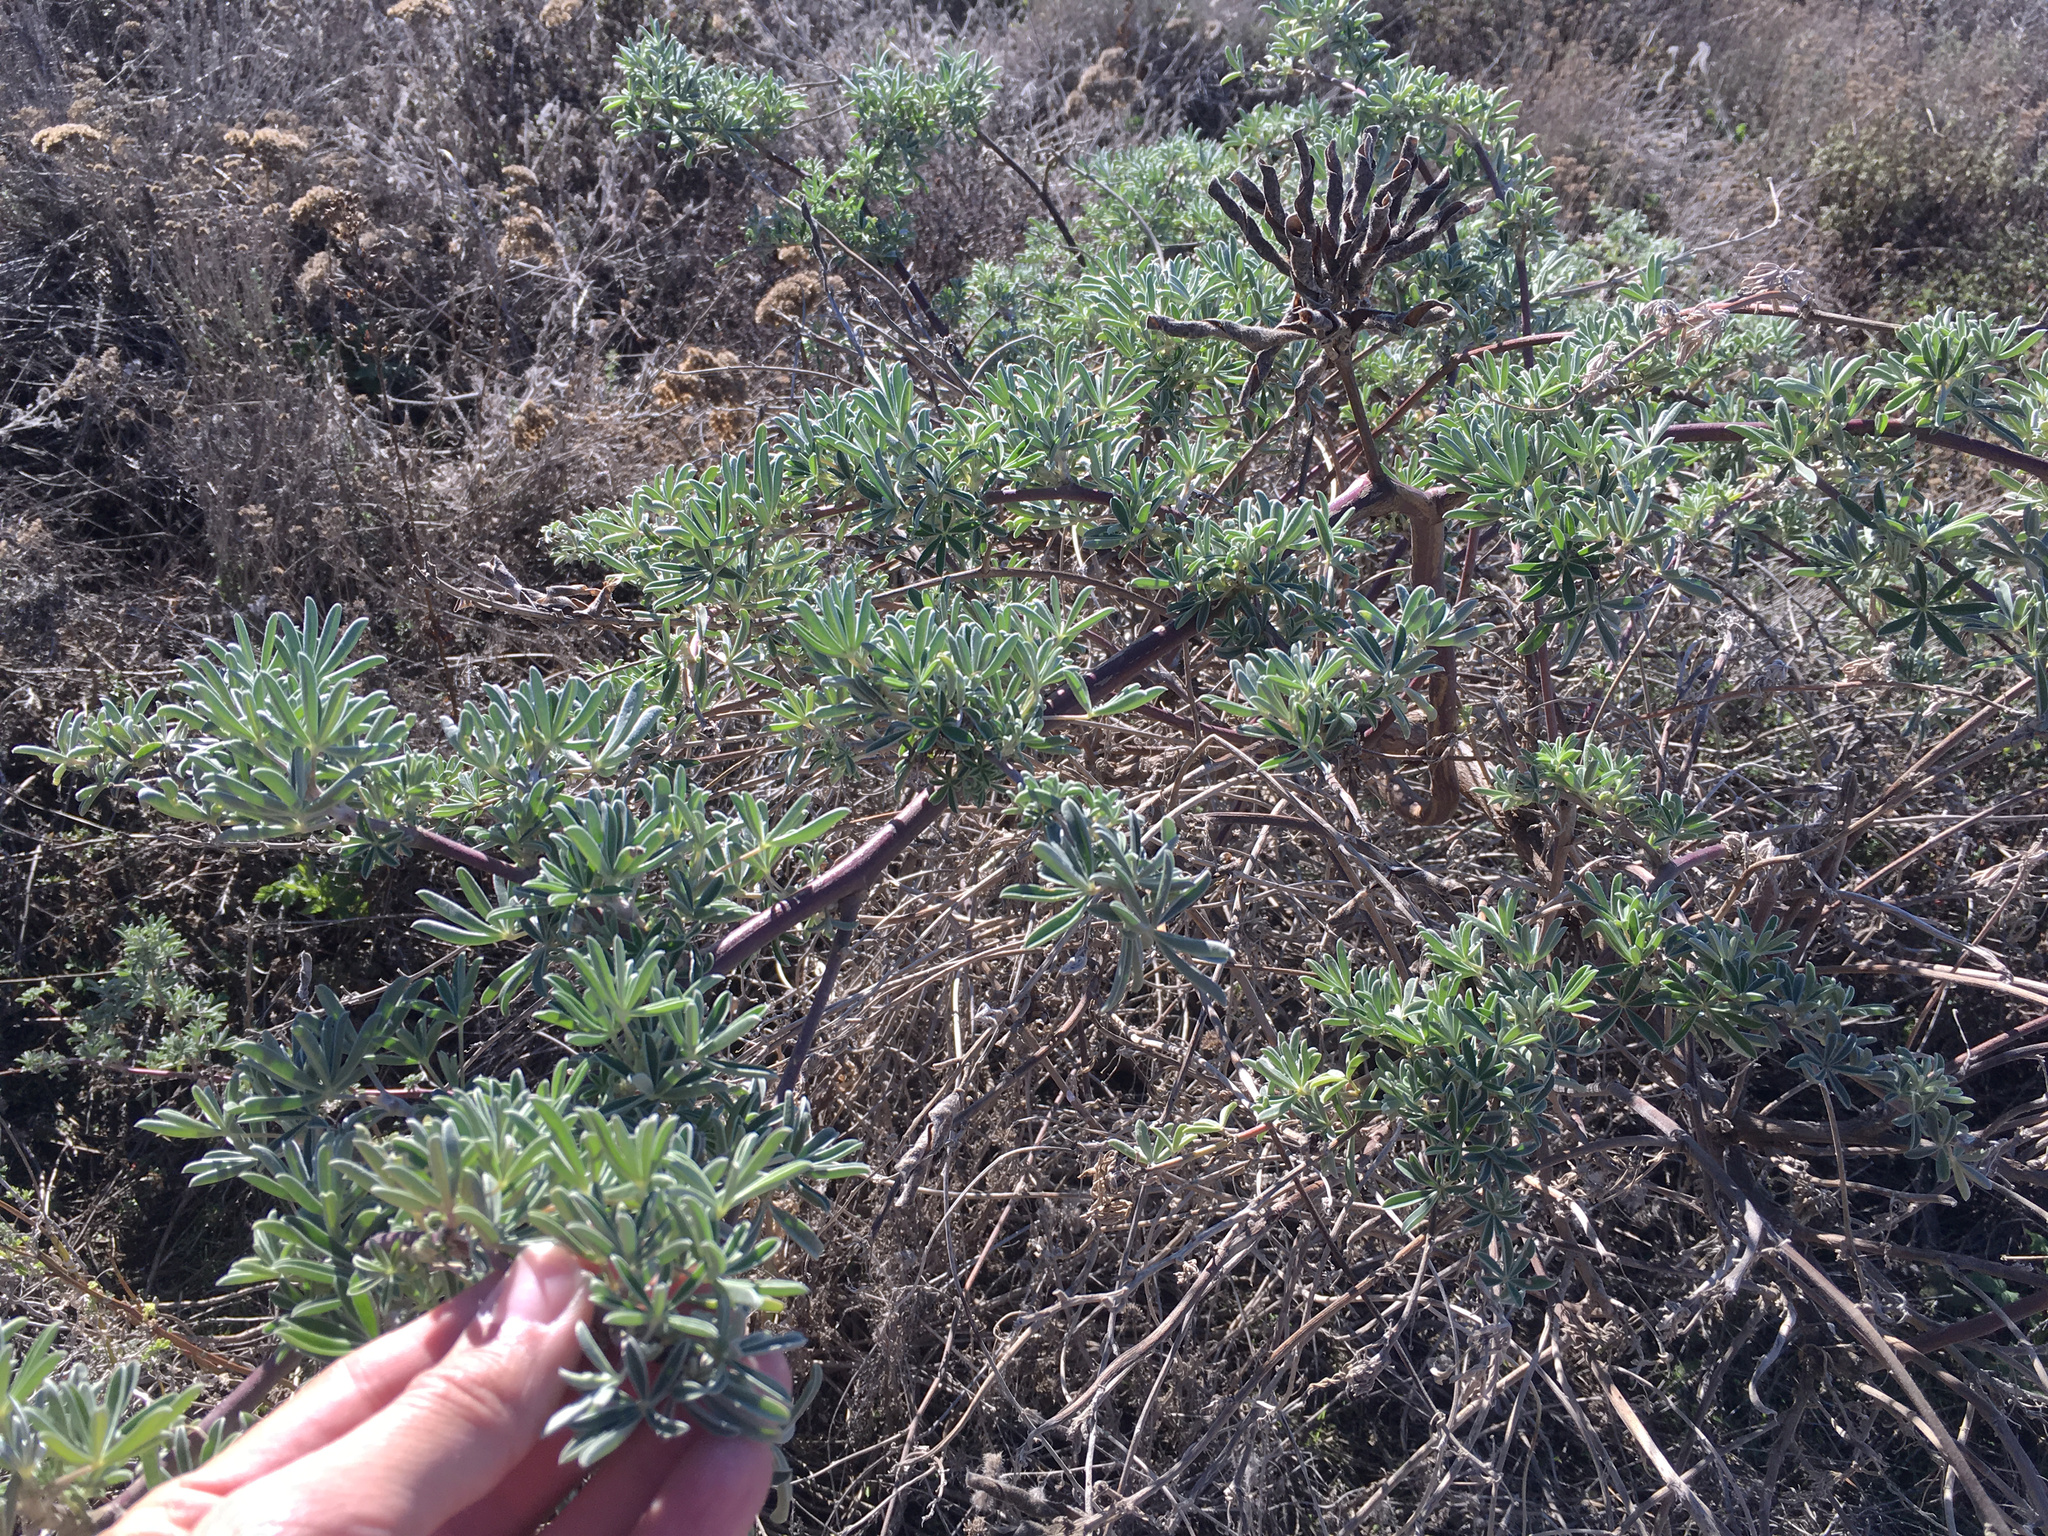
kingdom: Plantae
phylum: Tracheophyta
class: Magnoliopsida
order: Fabales
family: Fabaceae
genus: Lupinus
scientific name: Lupinus arboreus
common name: Yellow bush lupine
